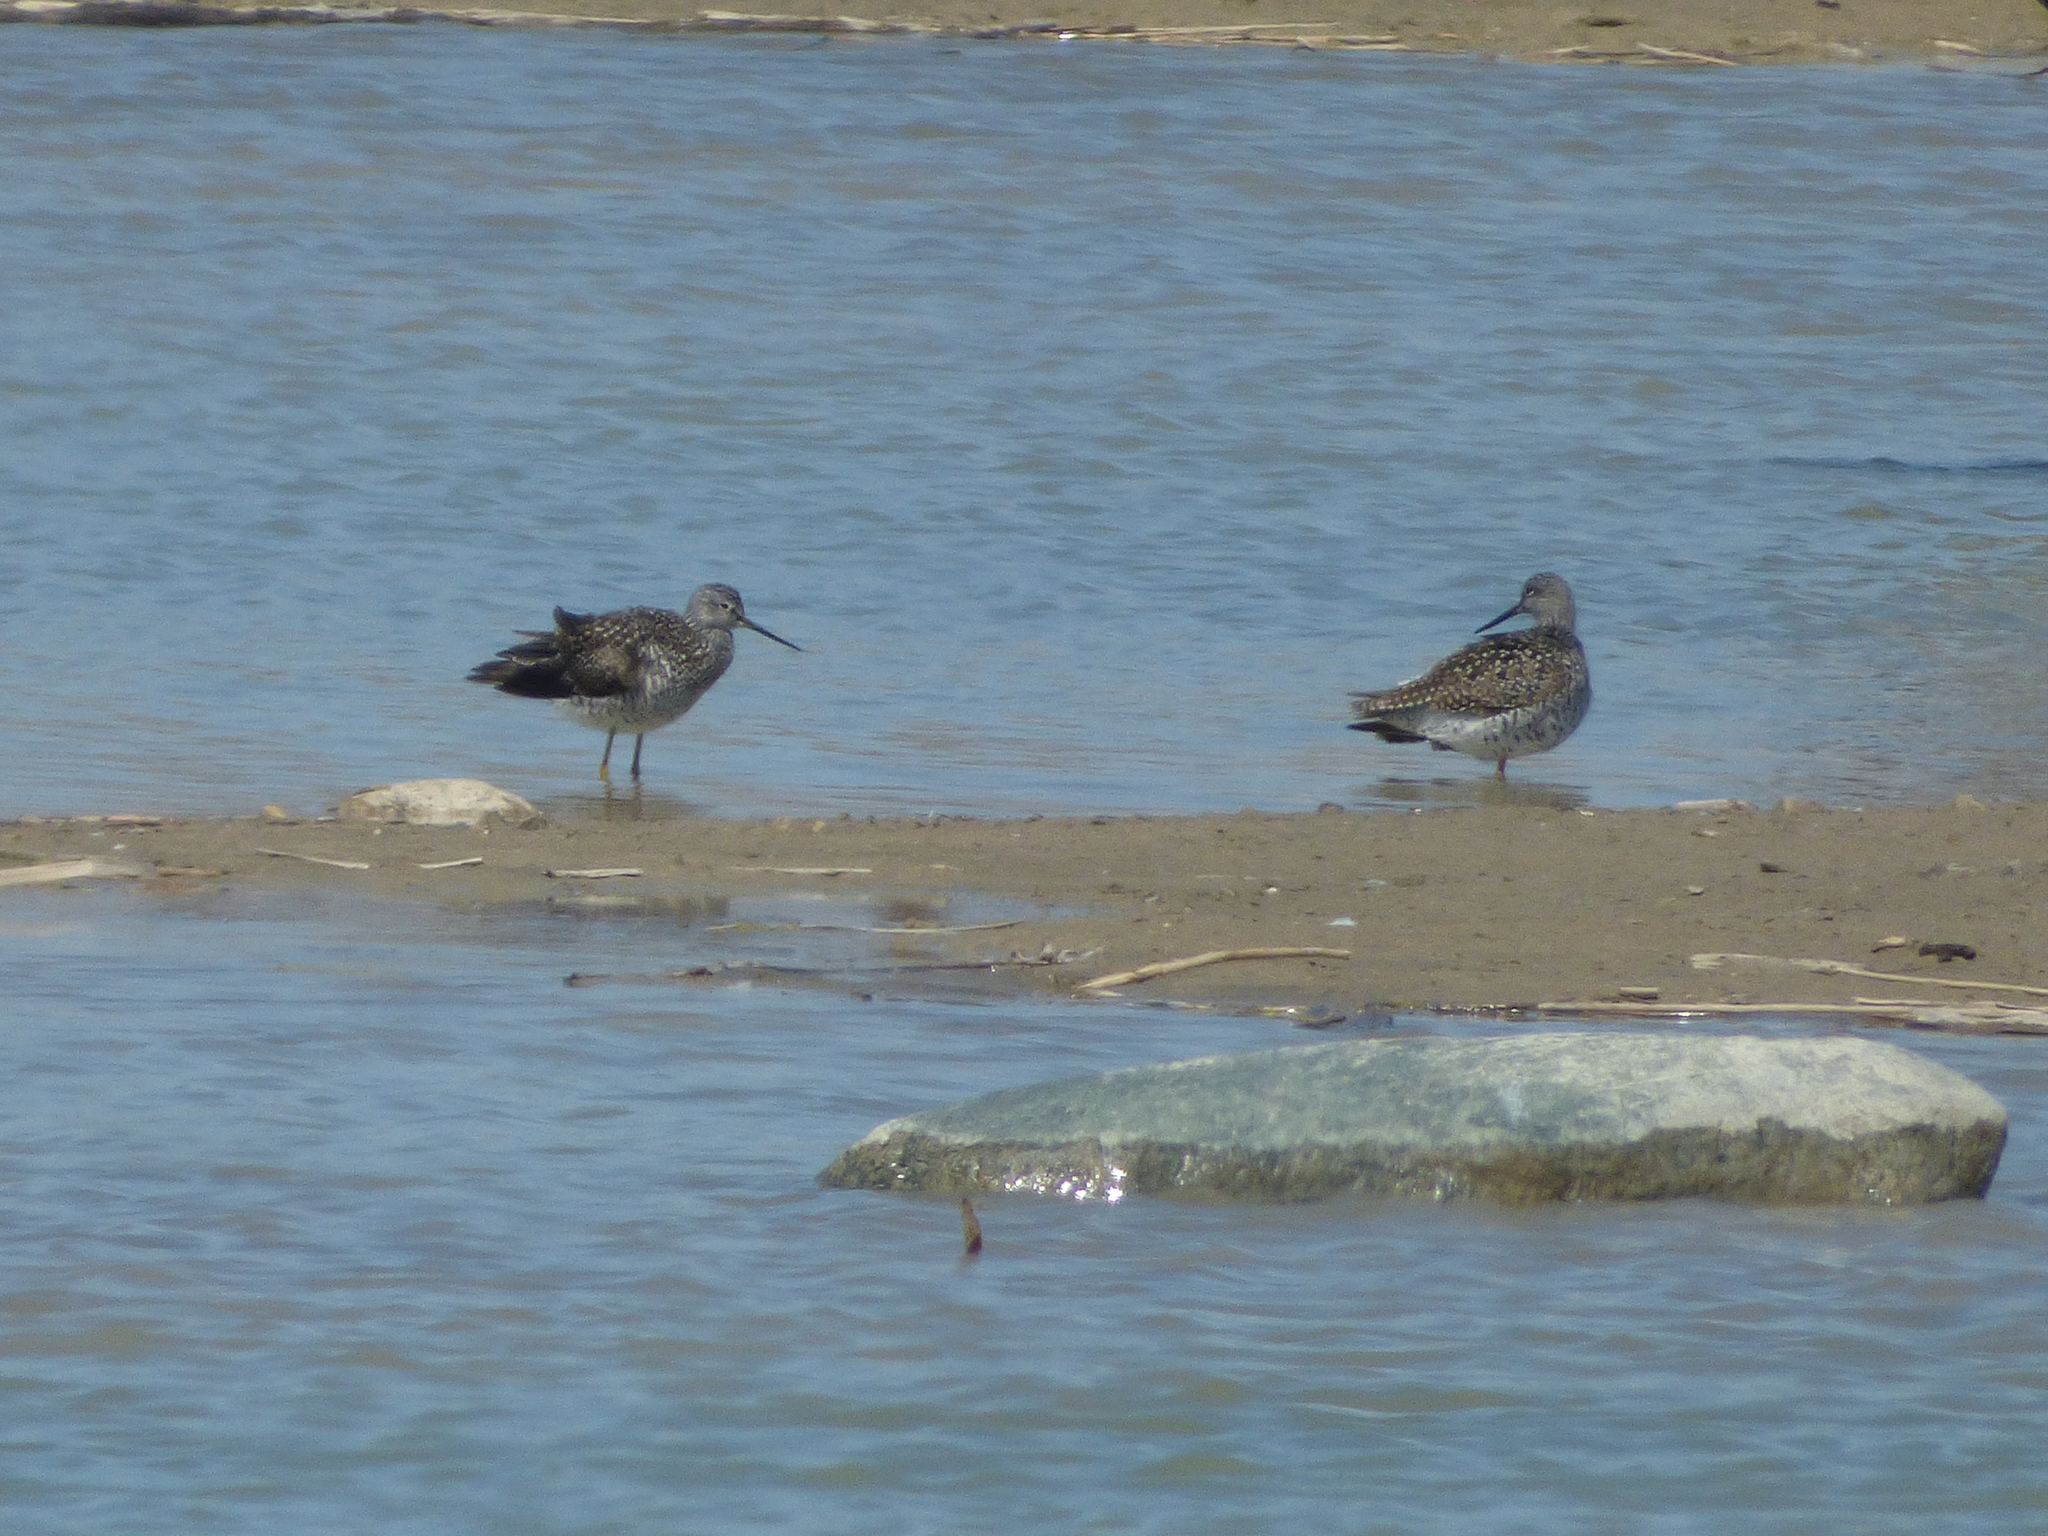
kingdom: Animalia
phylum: Chordata
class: Aves
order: Charadriiformes
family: Scolopacidae
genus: Tringa
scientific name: Tringa melanoleuca
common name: Greater yellowlegs
